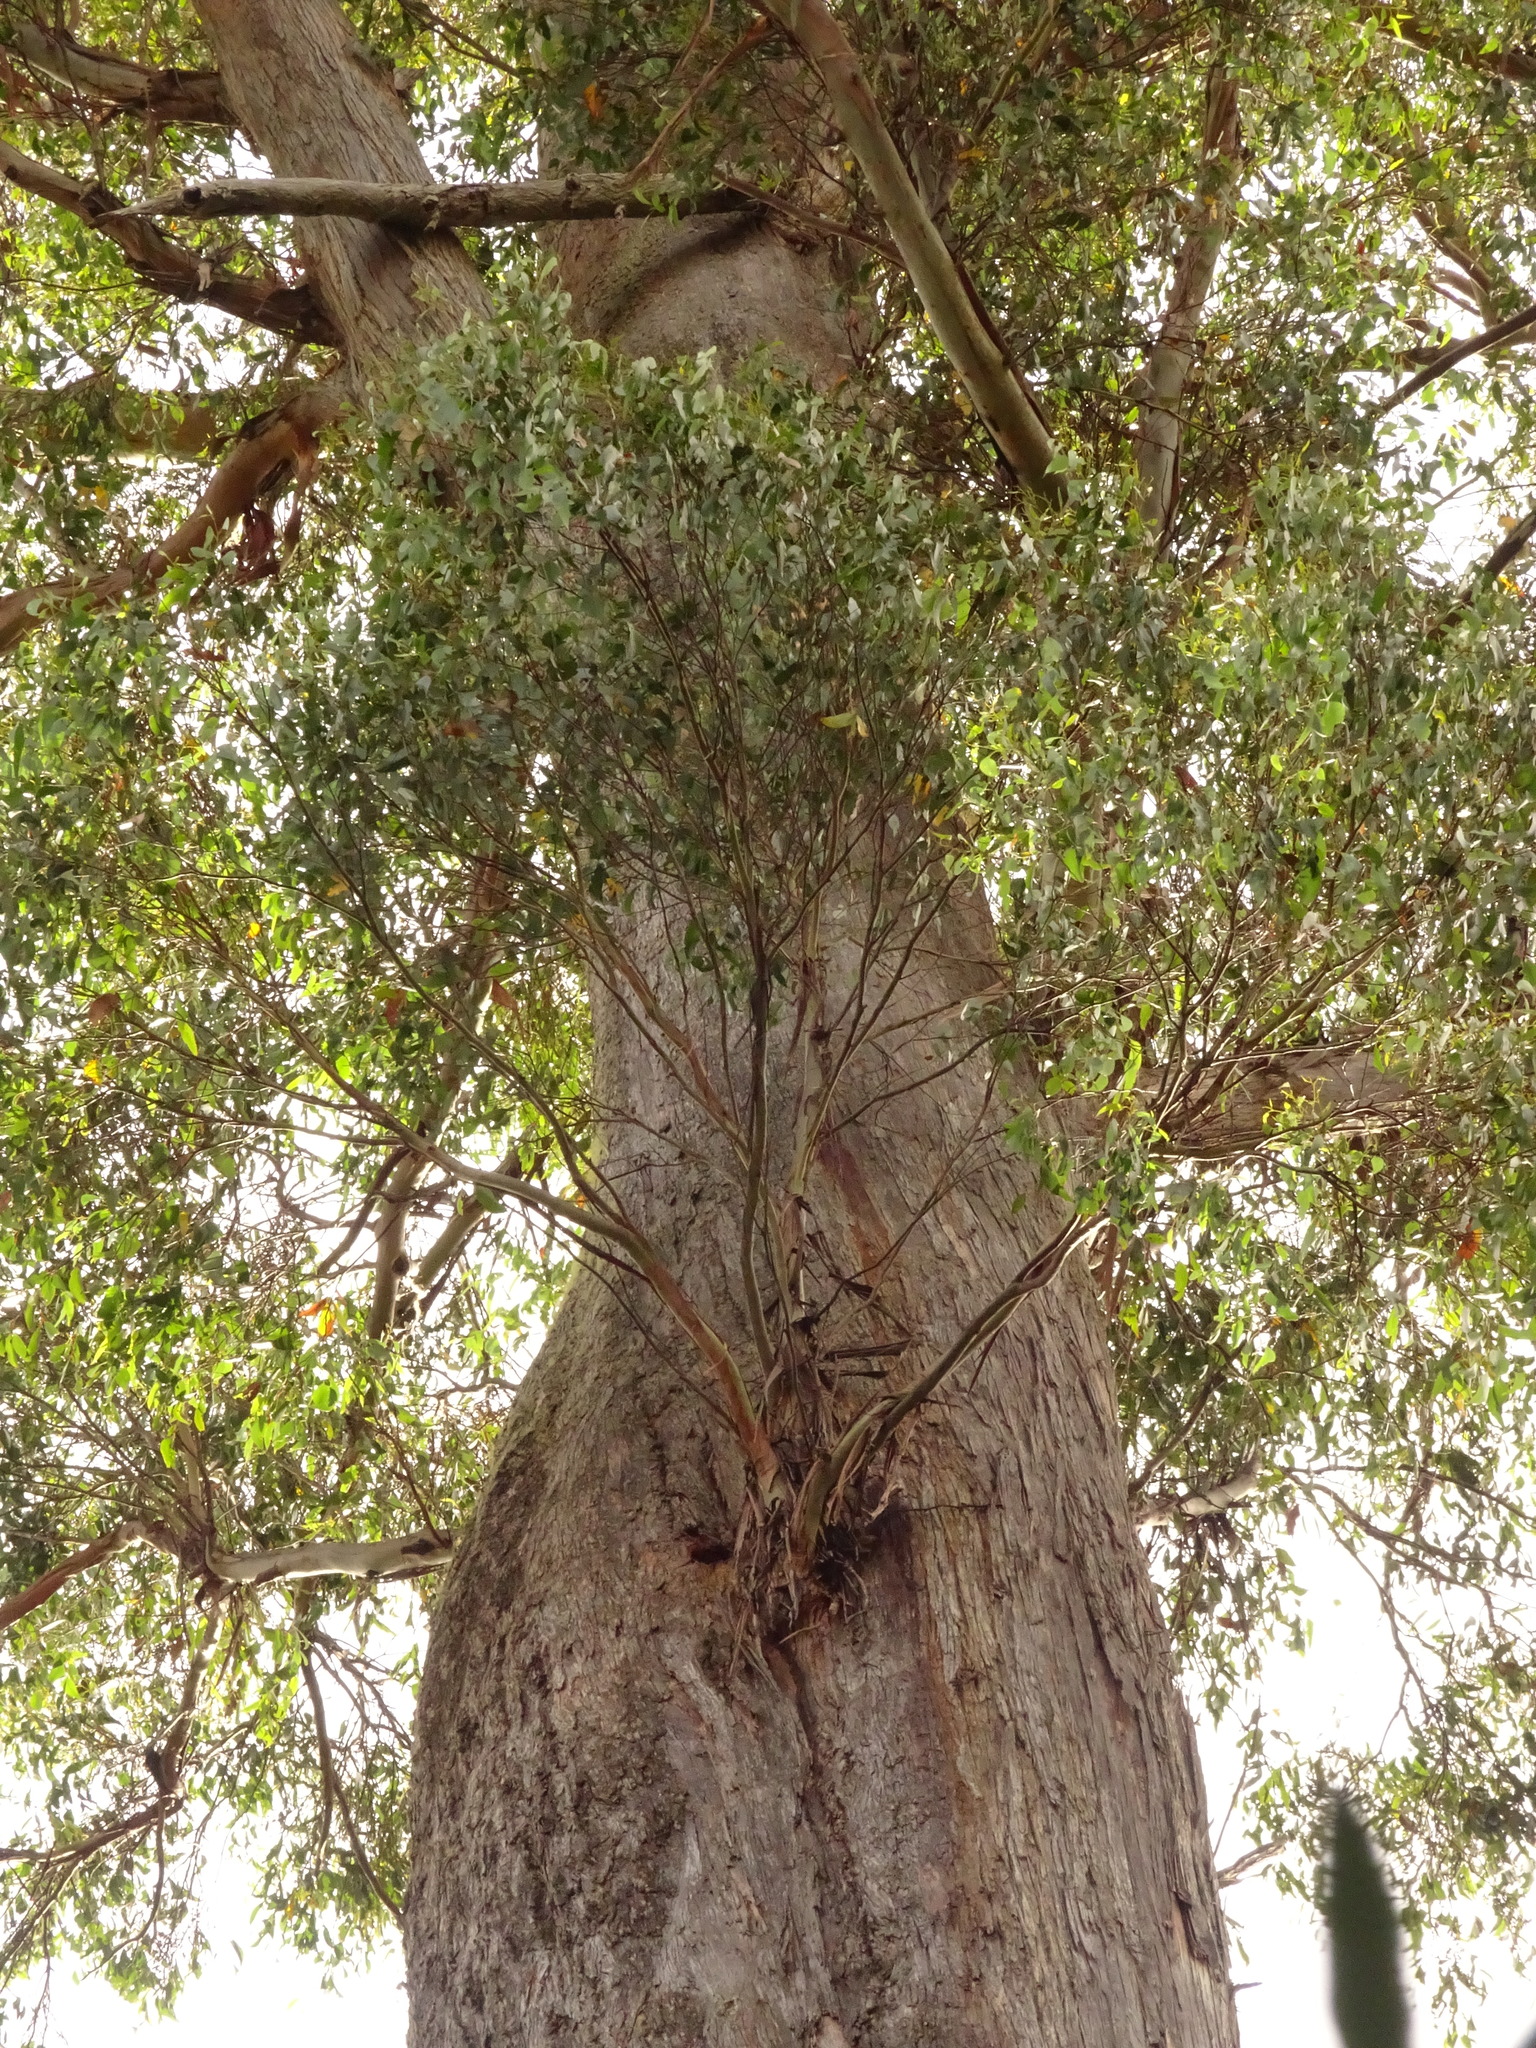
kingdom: Plantae
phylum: Tracheophyta
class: Magnoliopsida
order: Myrtales
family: Myrtaceae
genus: Eucalyptus
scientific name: Eucalyptus obliqua
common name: Messmate stringybark
